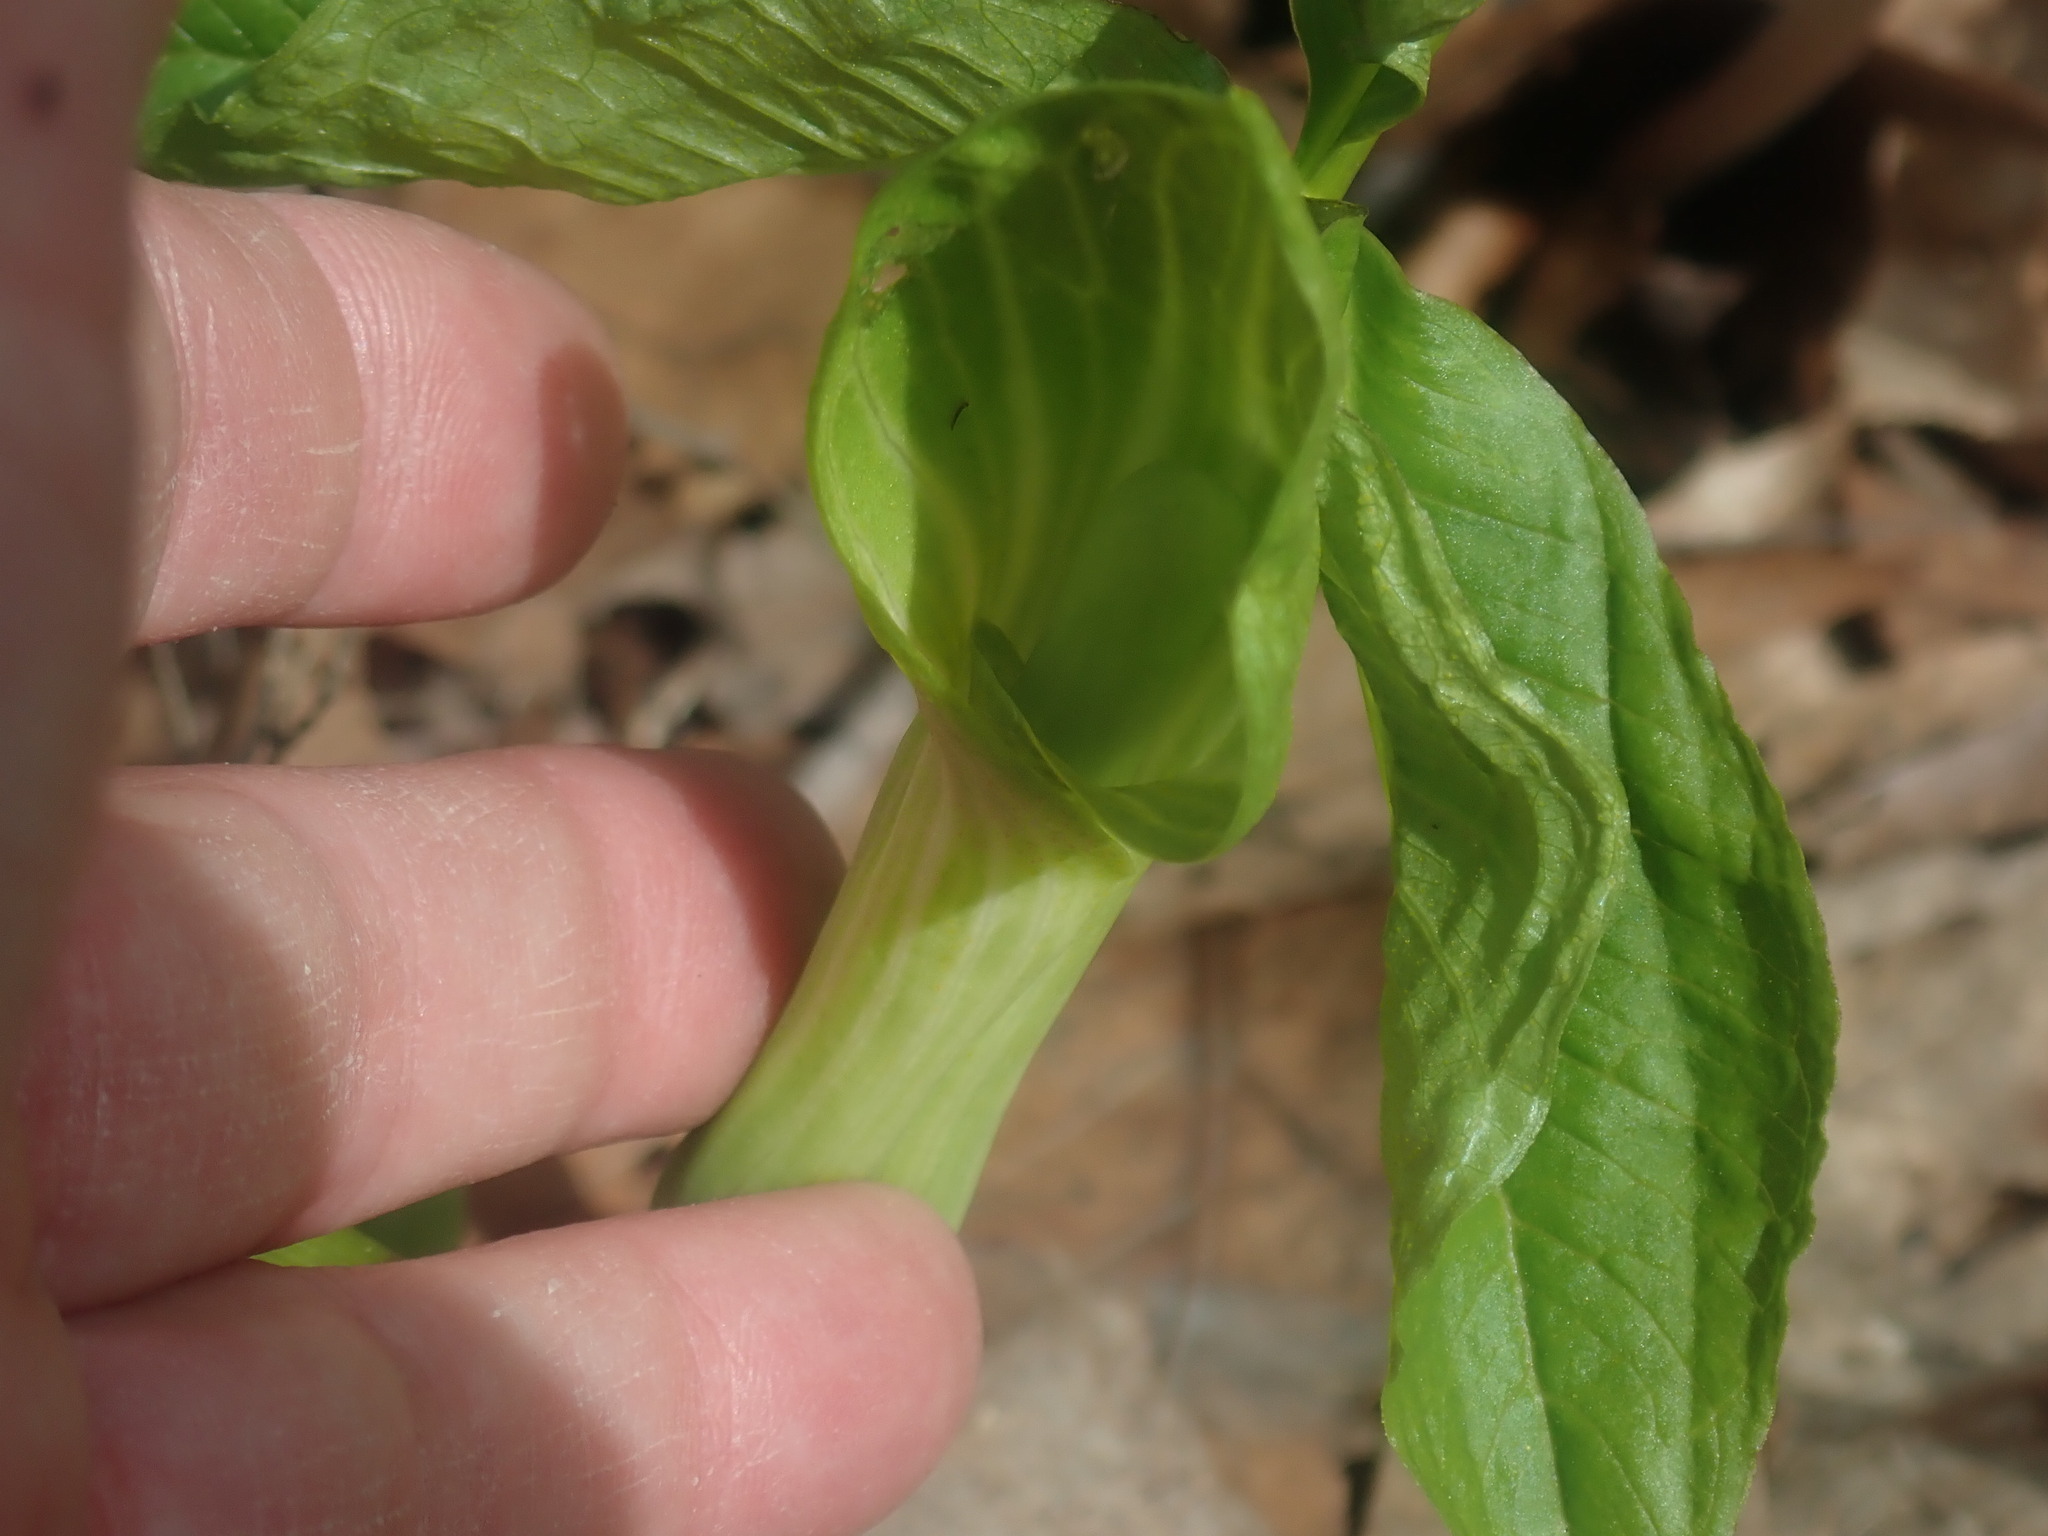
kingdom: Plantae
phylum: Tracheophyta
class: Liliopsida
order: Alismatales
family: Araceae
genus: Arisaema
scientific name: Arisaema triphyllum
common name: Jack-in-the-pulpit
